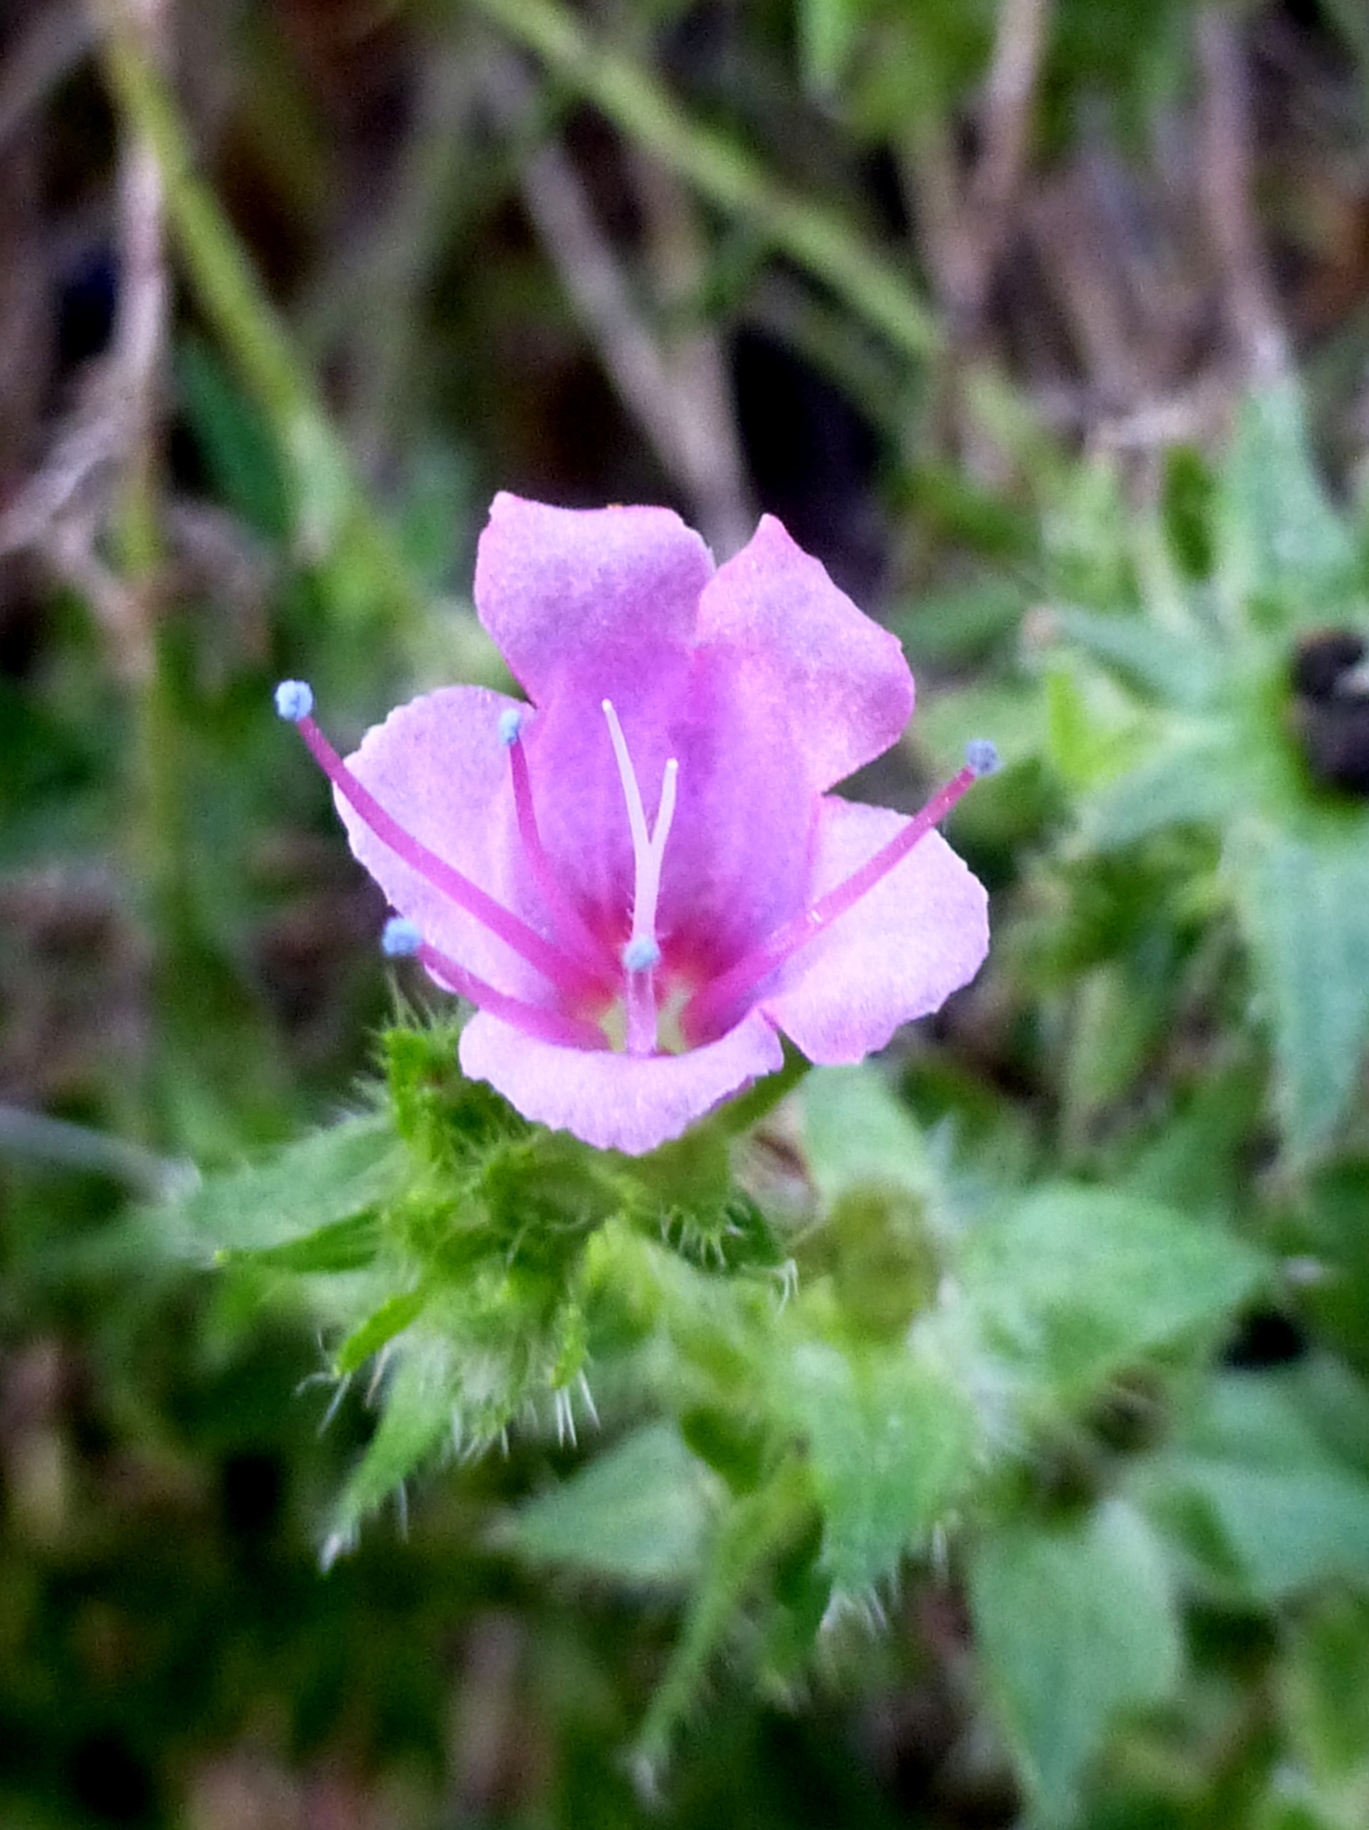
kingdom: Plantae
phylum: Tracheophyta
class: Magnoliopsida
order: Boraginales
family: Boraginaceae
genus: Echium
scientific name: Echium pininana
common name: Giant viper's-bugloss
